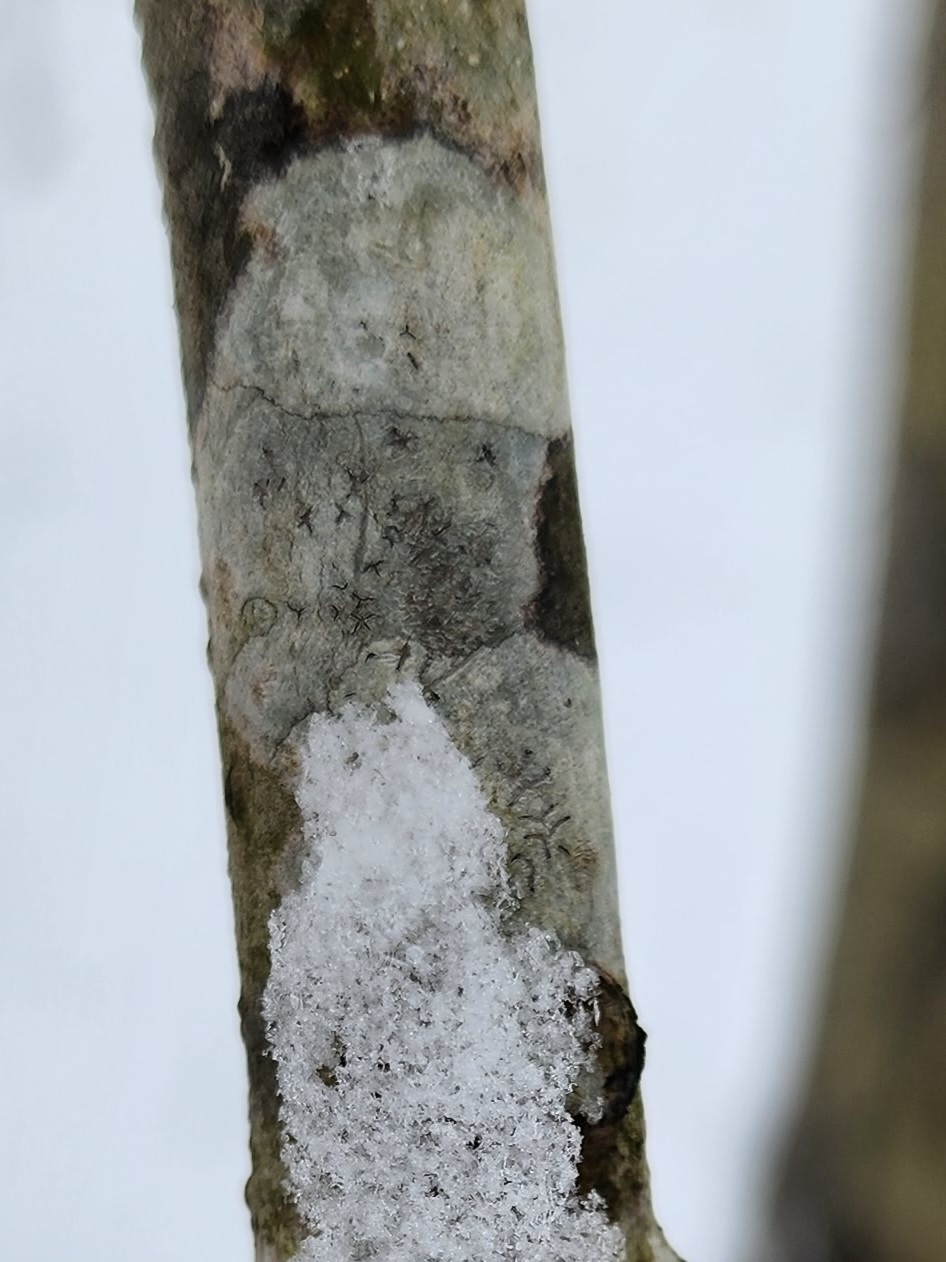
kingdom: Fungi
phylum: Ascomycota
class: Lecanoromycetes
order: Ostropales
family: Graphidaceae
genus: Graphis
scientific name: Graphis scripta
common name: Script lichen
